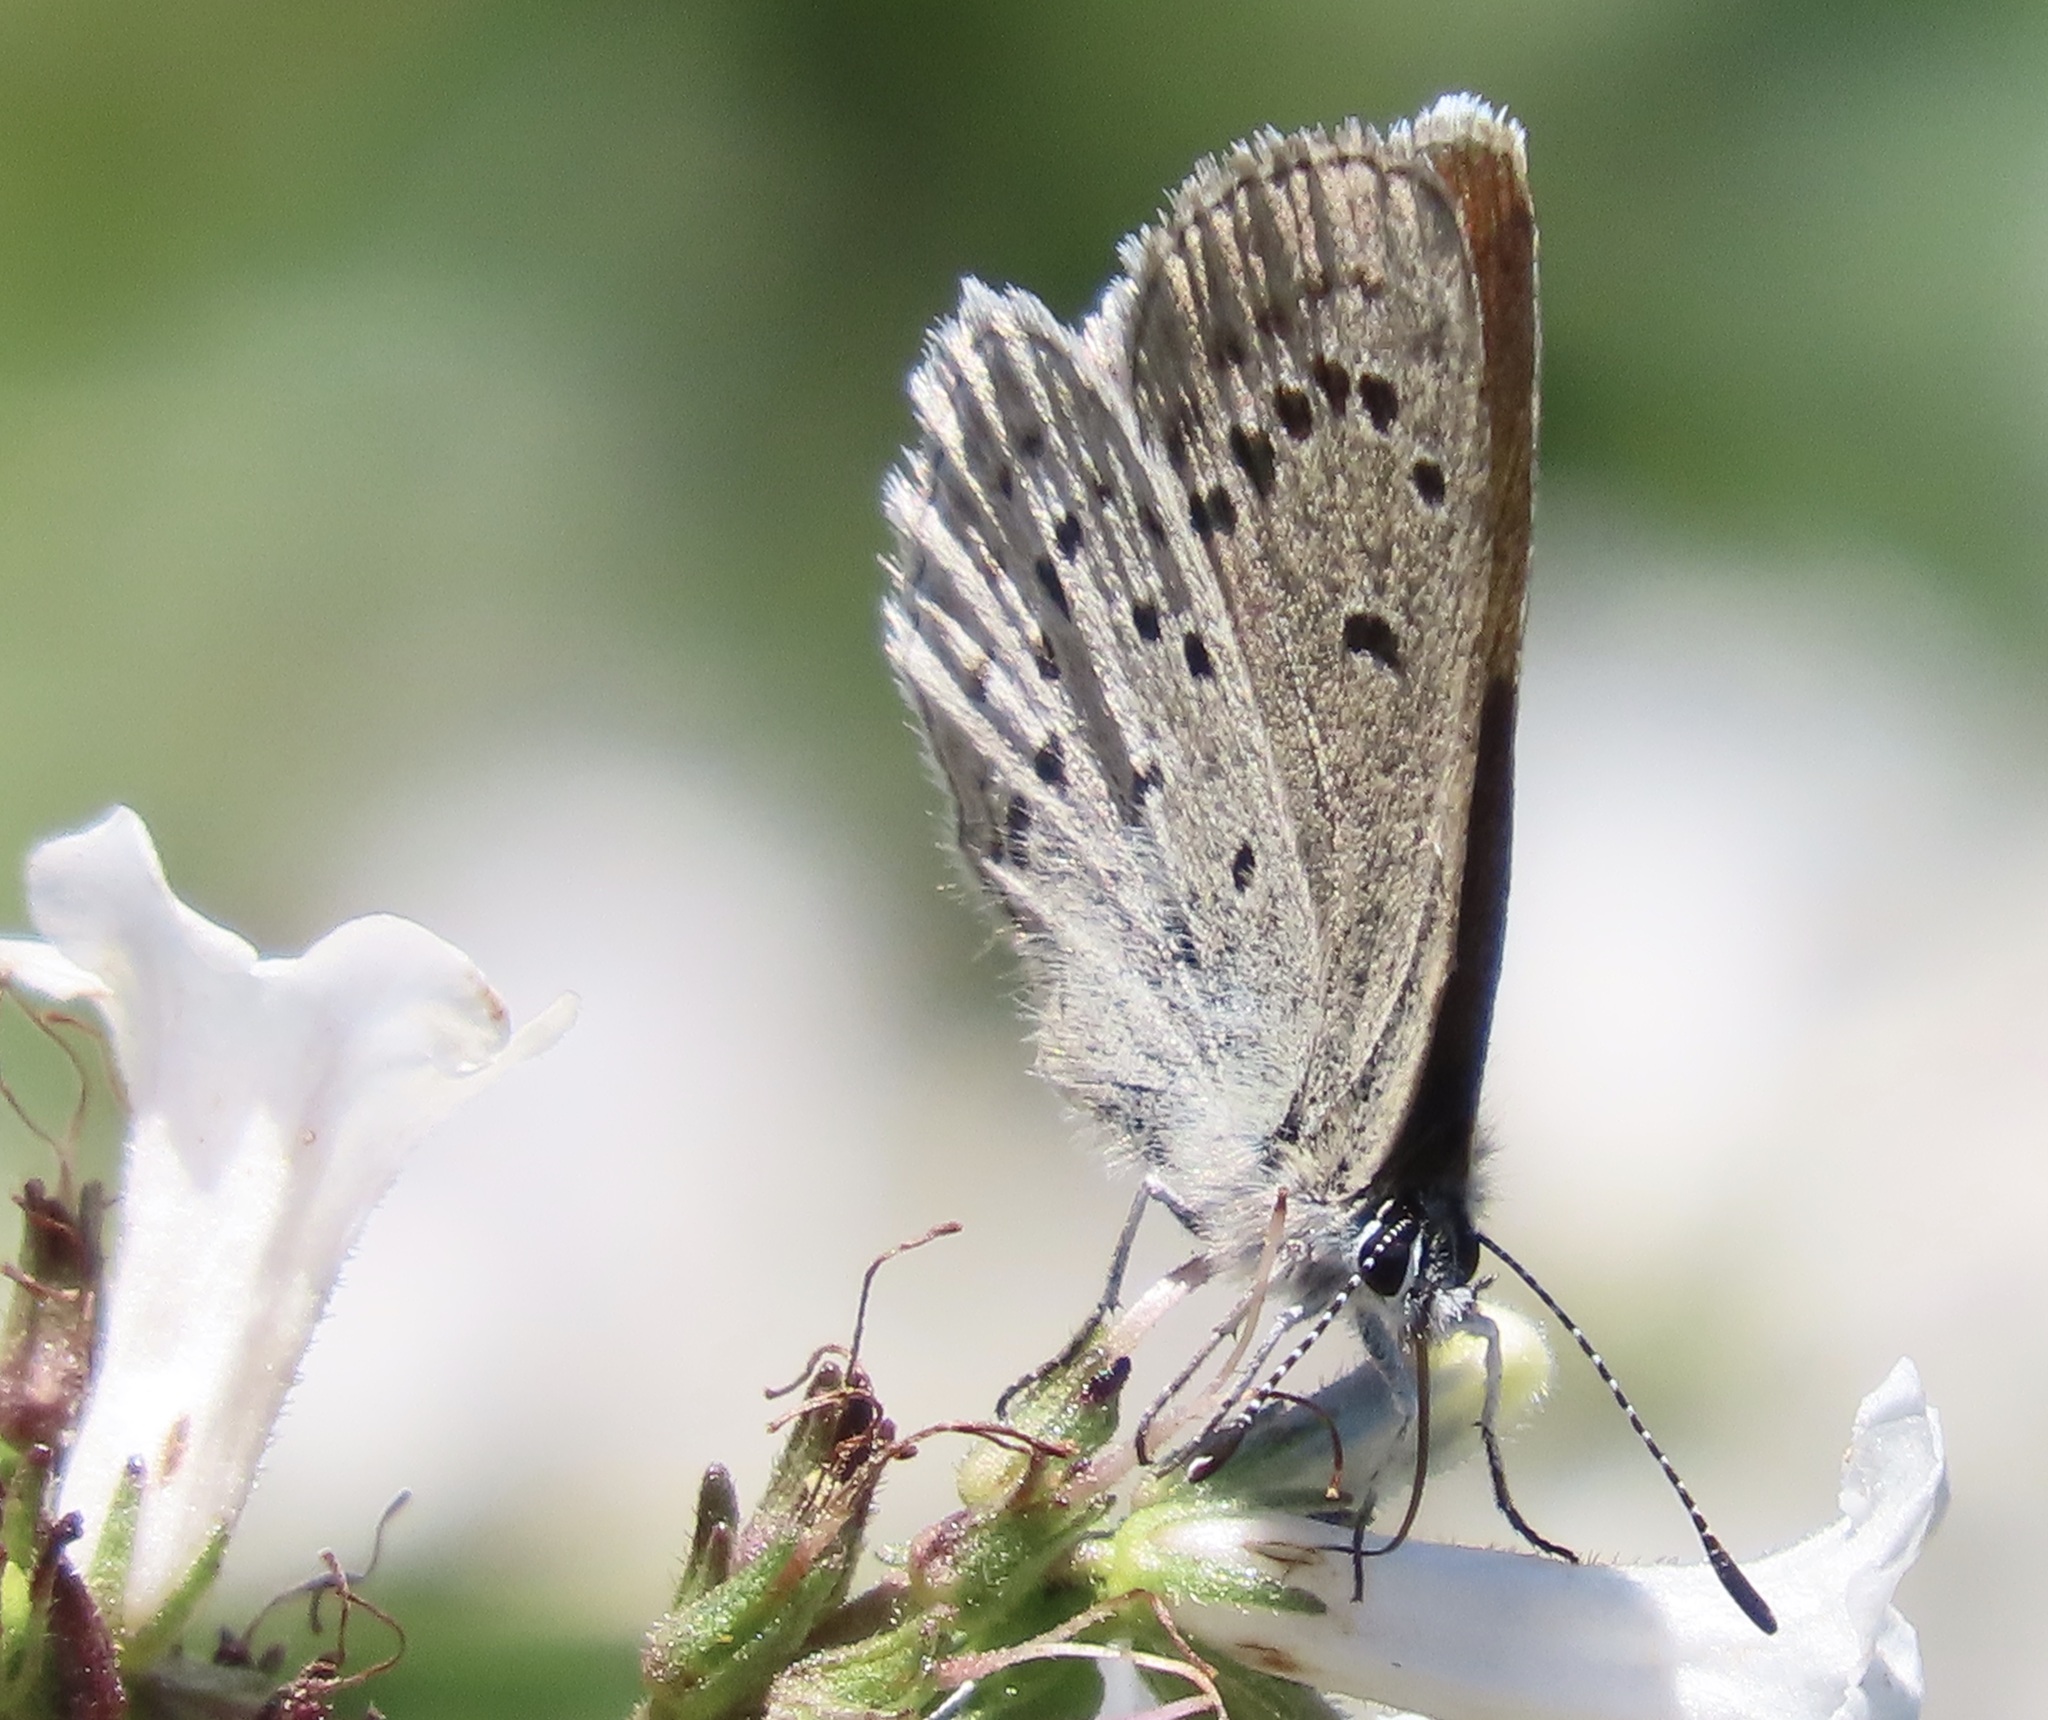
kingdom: Animalia
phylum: Arthropoda
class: Insecta
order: Lepidoptera
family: Lycaenidae
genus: Icaricia
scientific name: Icaricia icarioides
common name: Boisduval's blue
